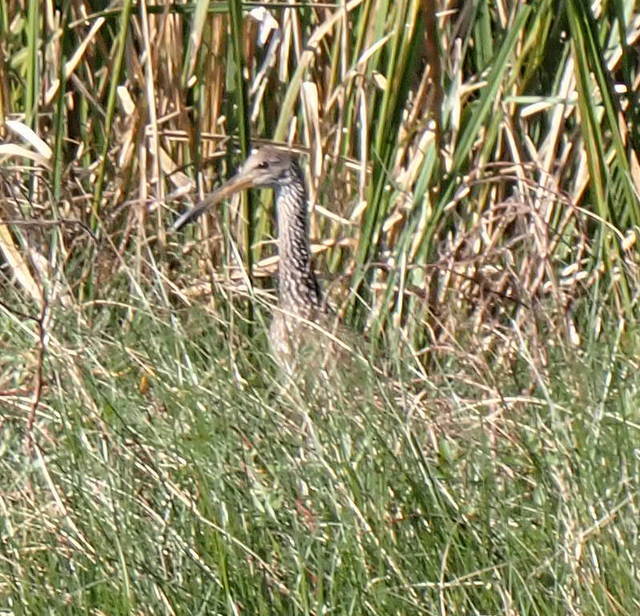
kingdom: Animalia
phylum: Chordata
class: Aves
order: Gruiformes
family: Aramidae
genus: Aramus
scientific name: Aramus guarauna
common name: Limpkin
